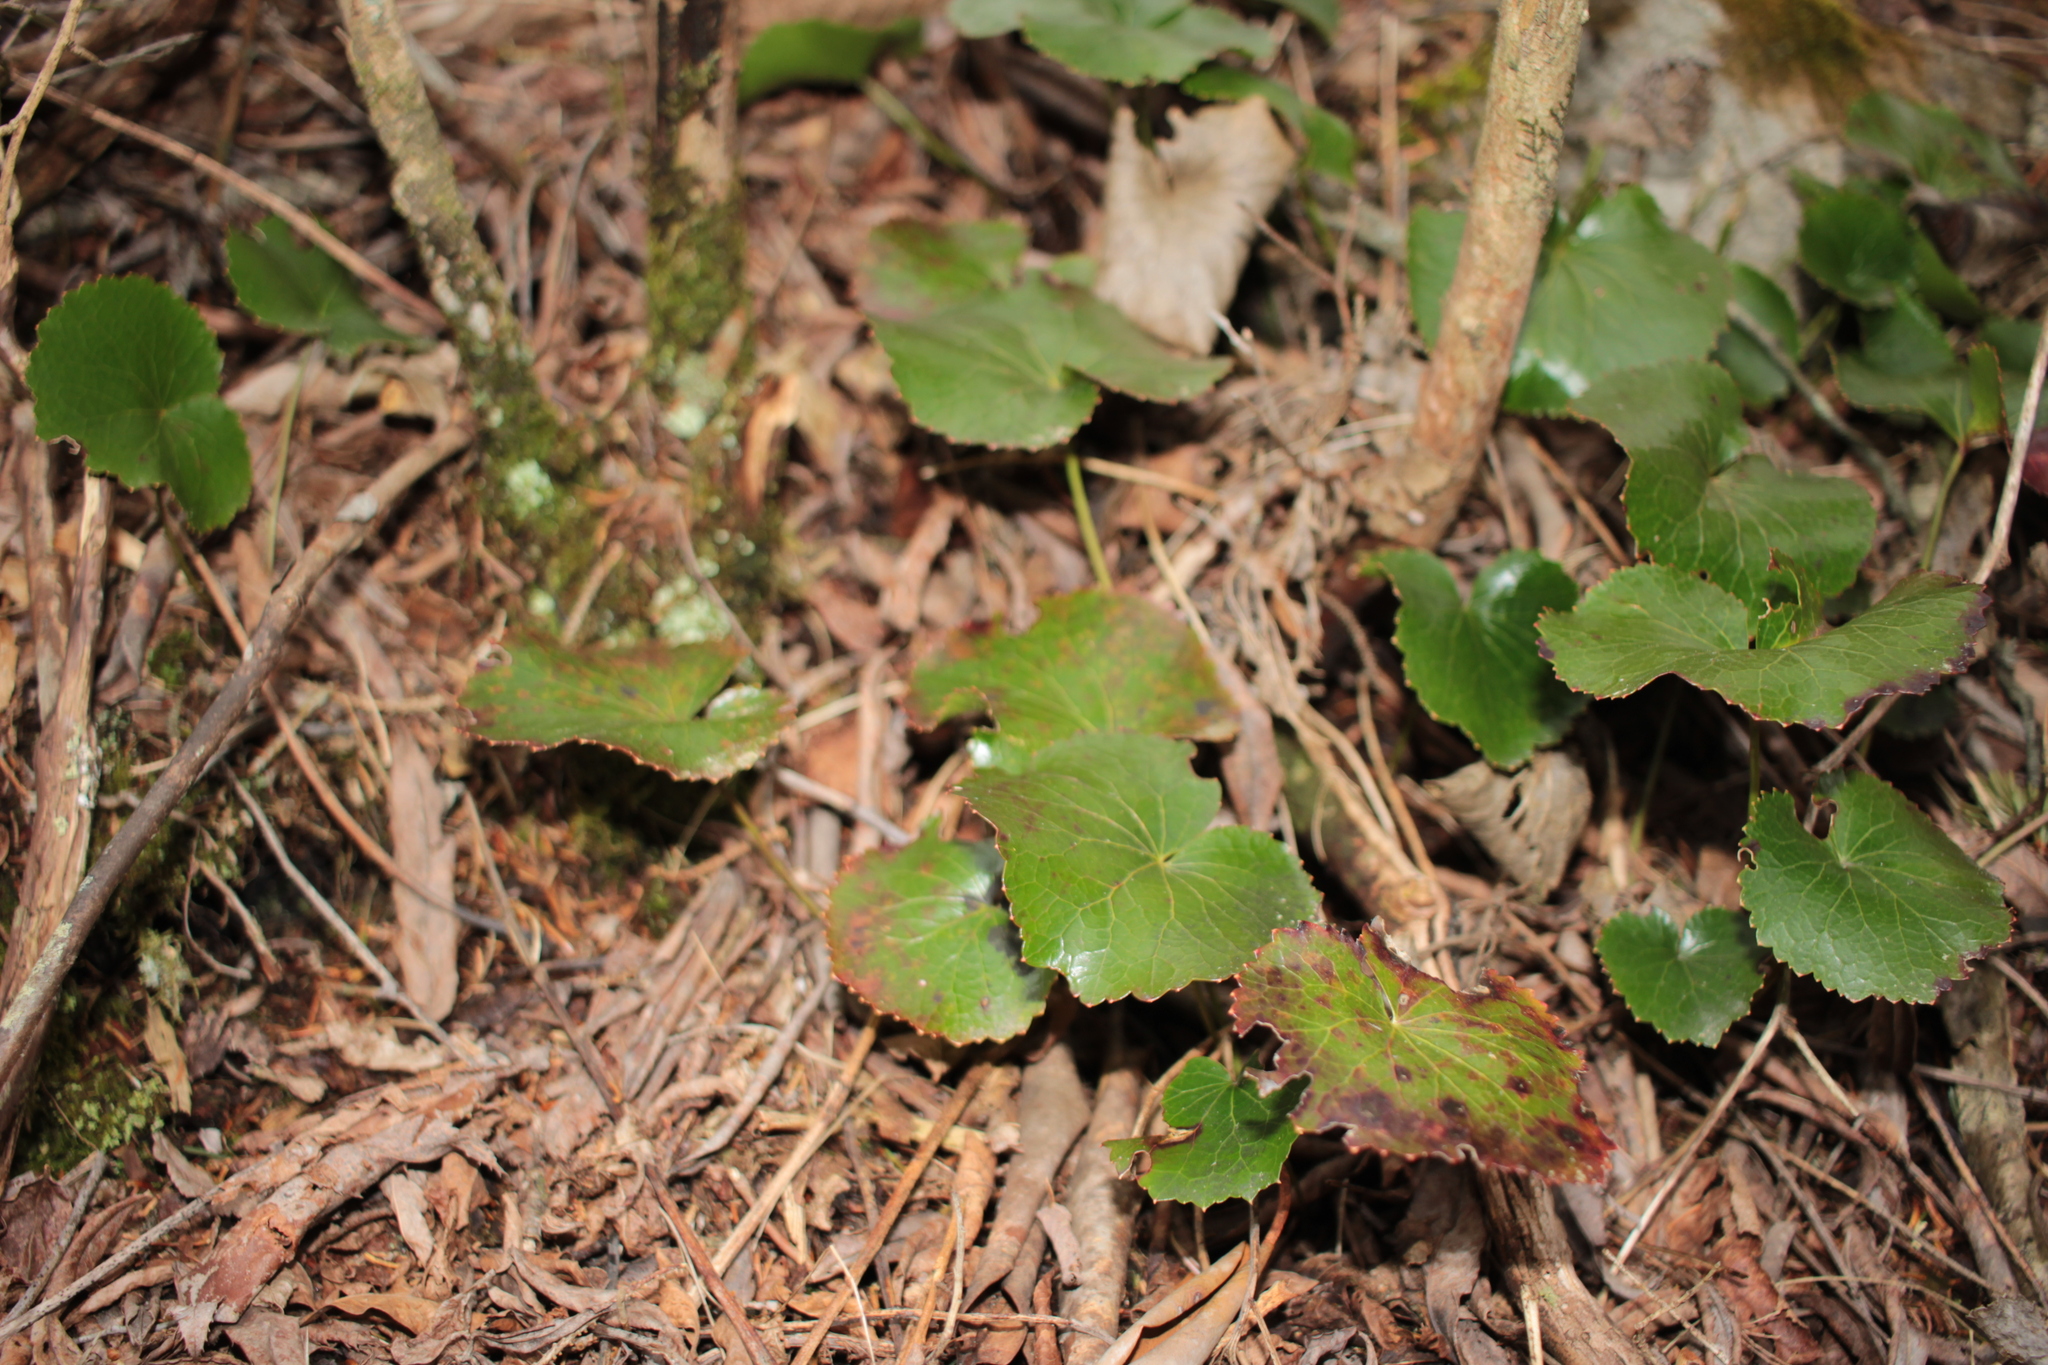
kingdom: Plantae
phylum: Tracheophyta
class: Magnoliopsida
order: Ericales
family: Diapensiaceae
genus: Galax
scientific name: Galax urceolata
